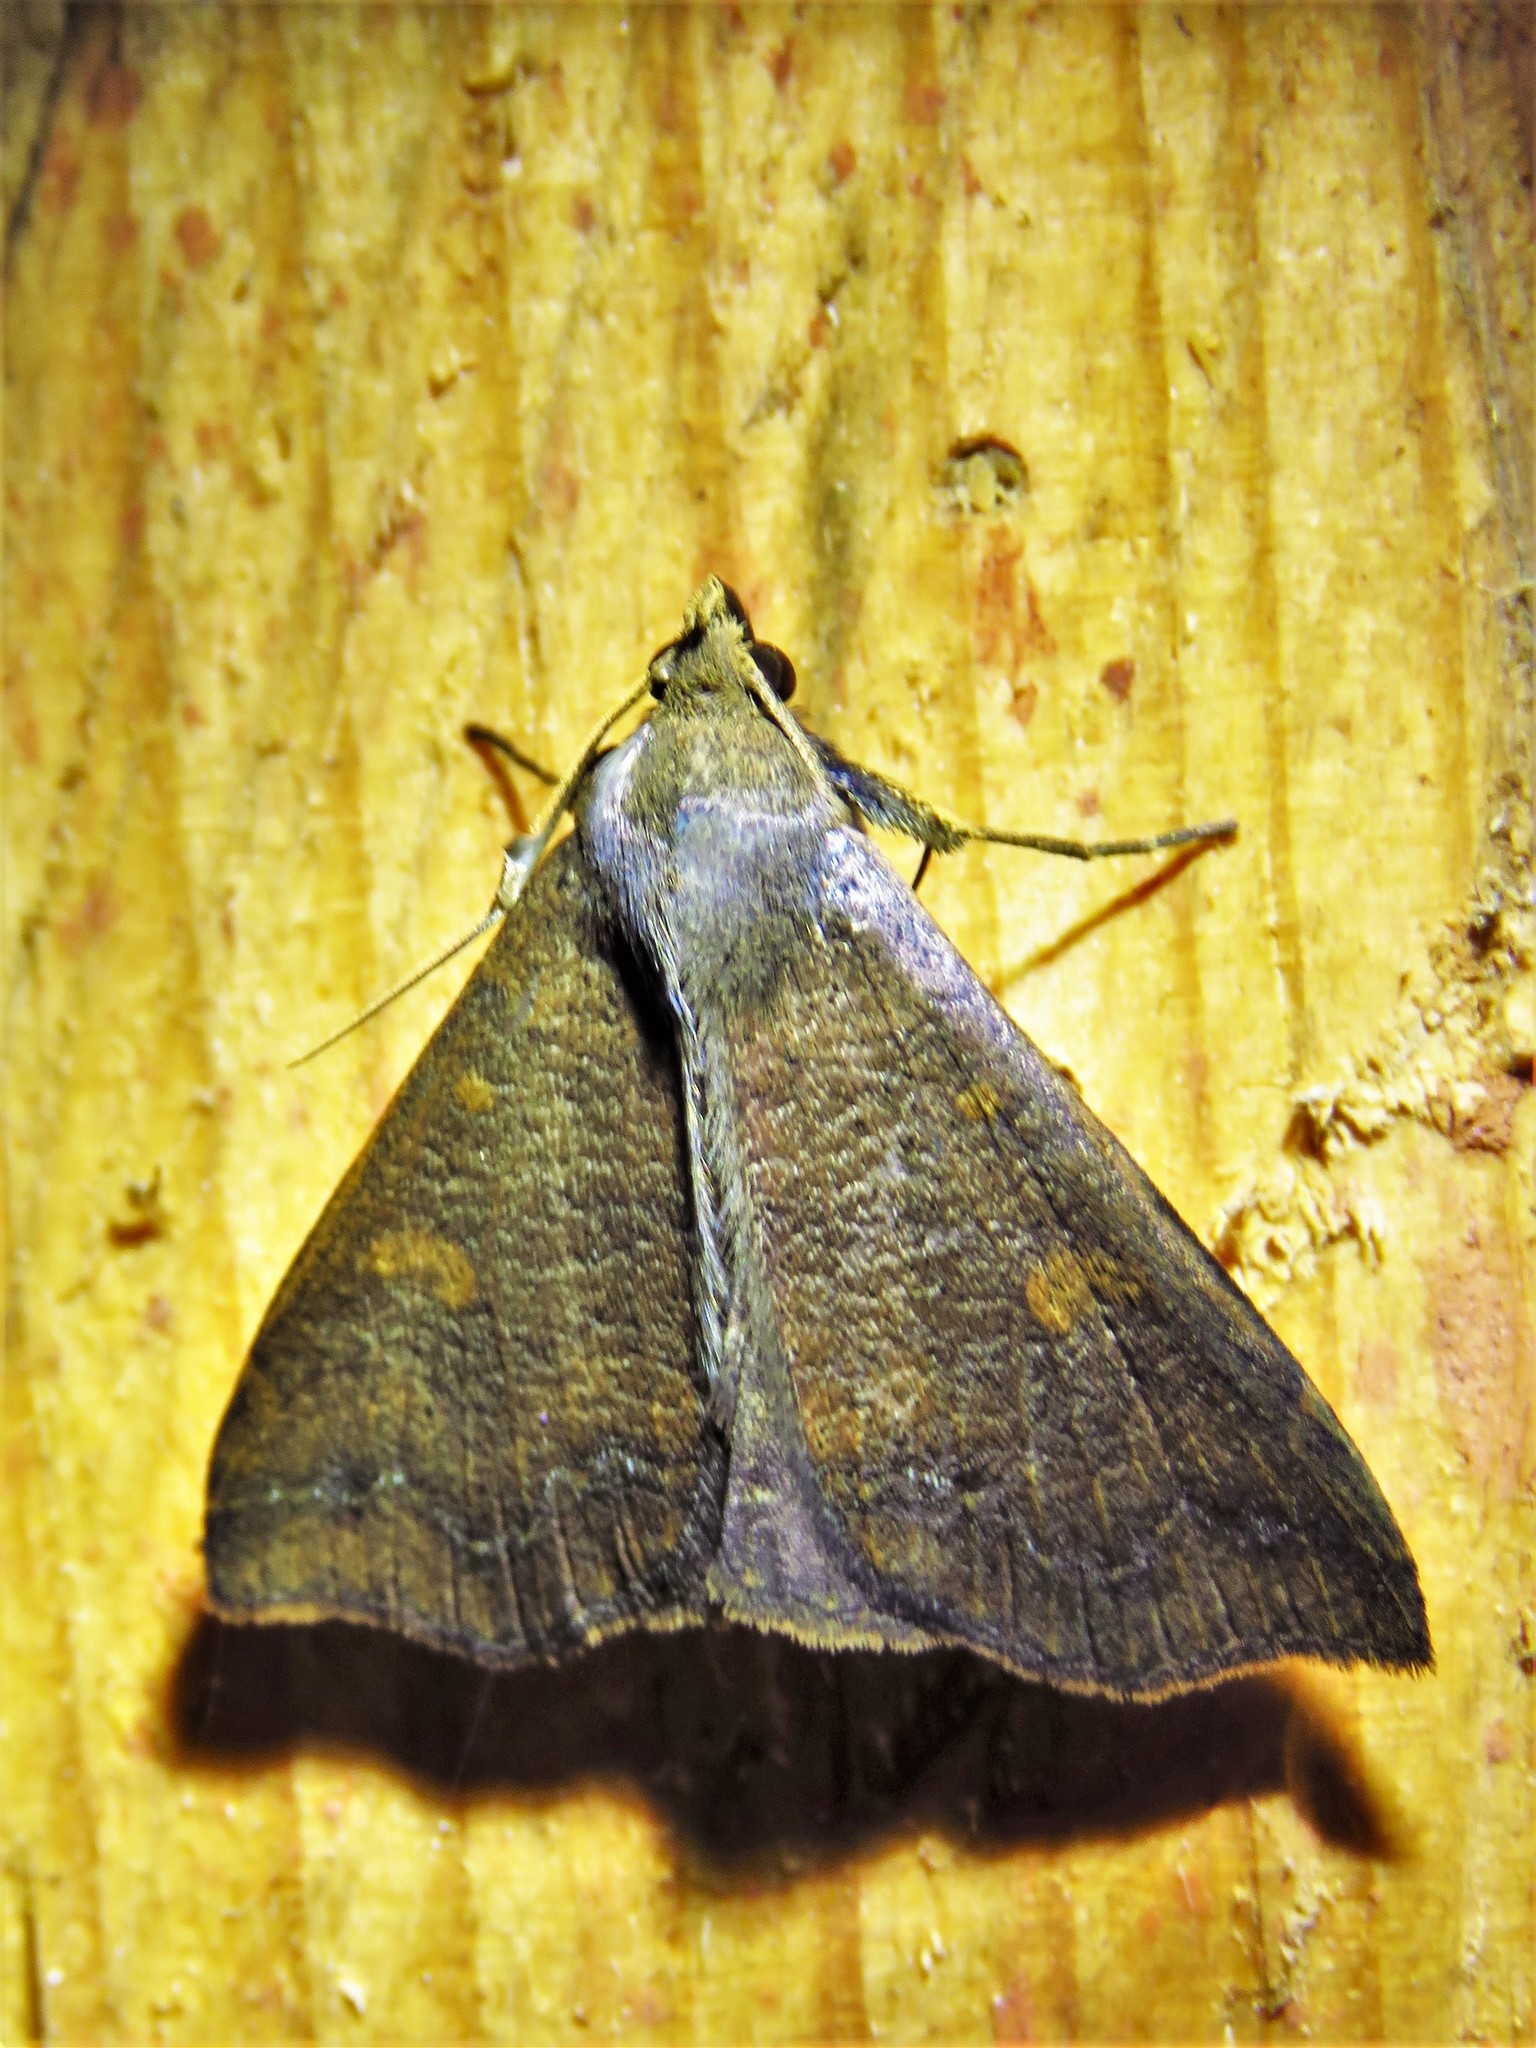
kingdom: Animalia
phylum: Arthropoda
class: Insecta
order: Lepidoptera
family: Erebidae
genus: Renia
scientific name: Renia discoloralis
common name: Discolored renia moth
